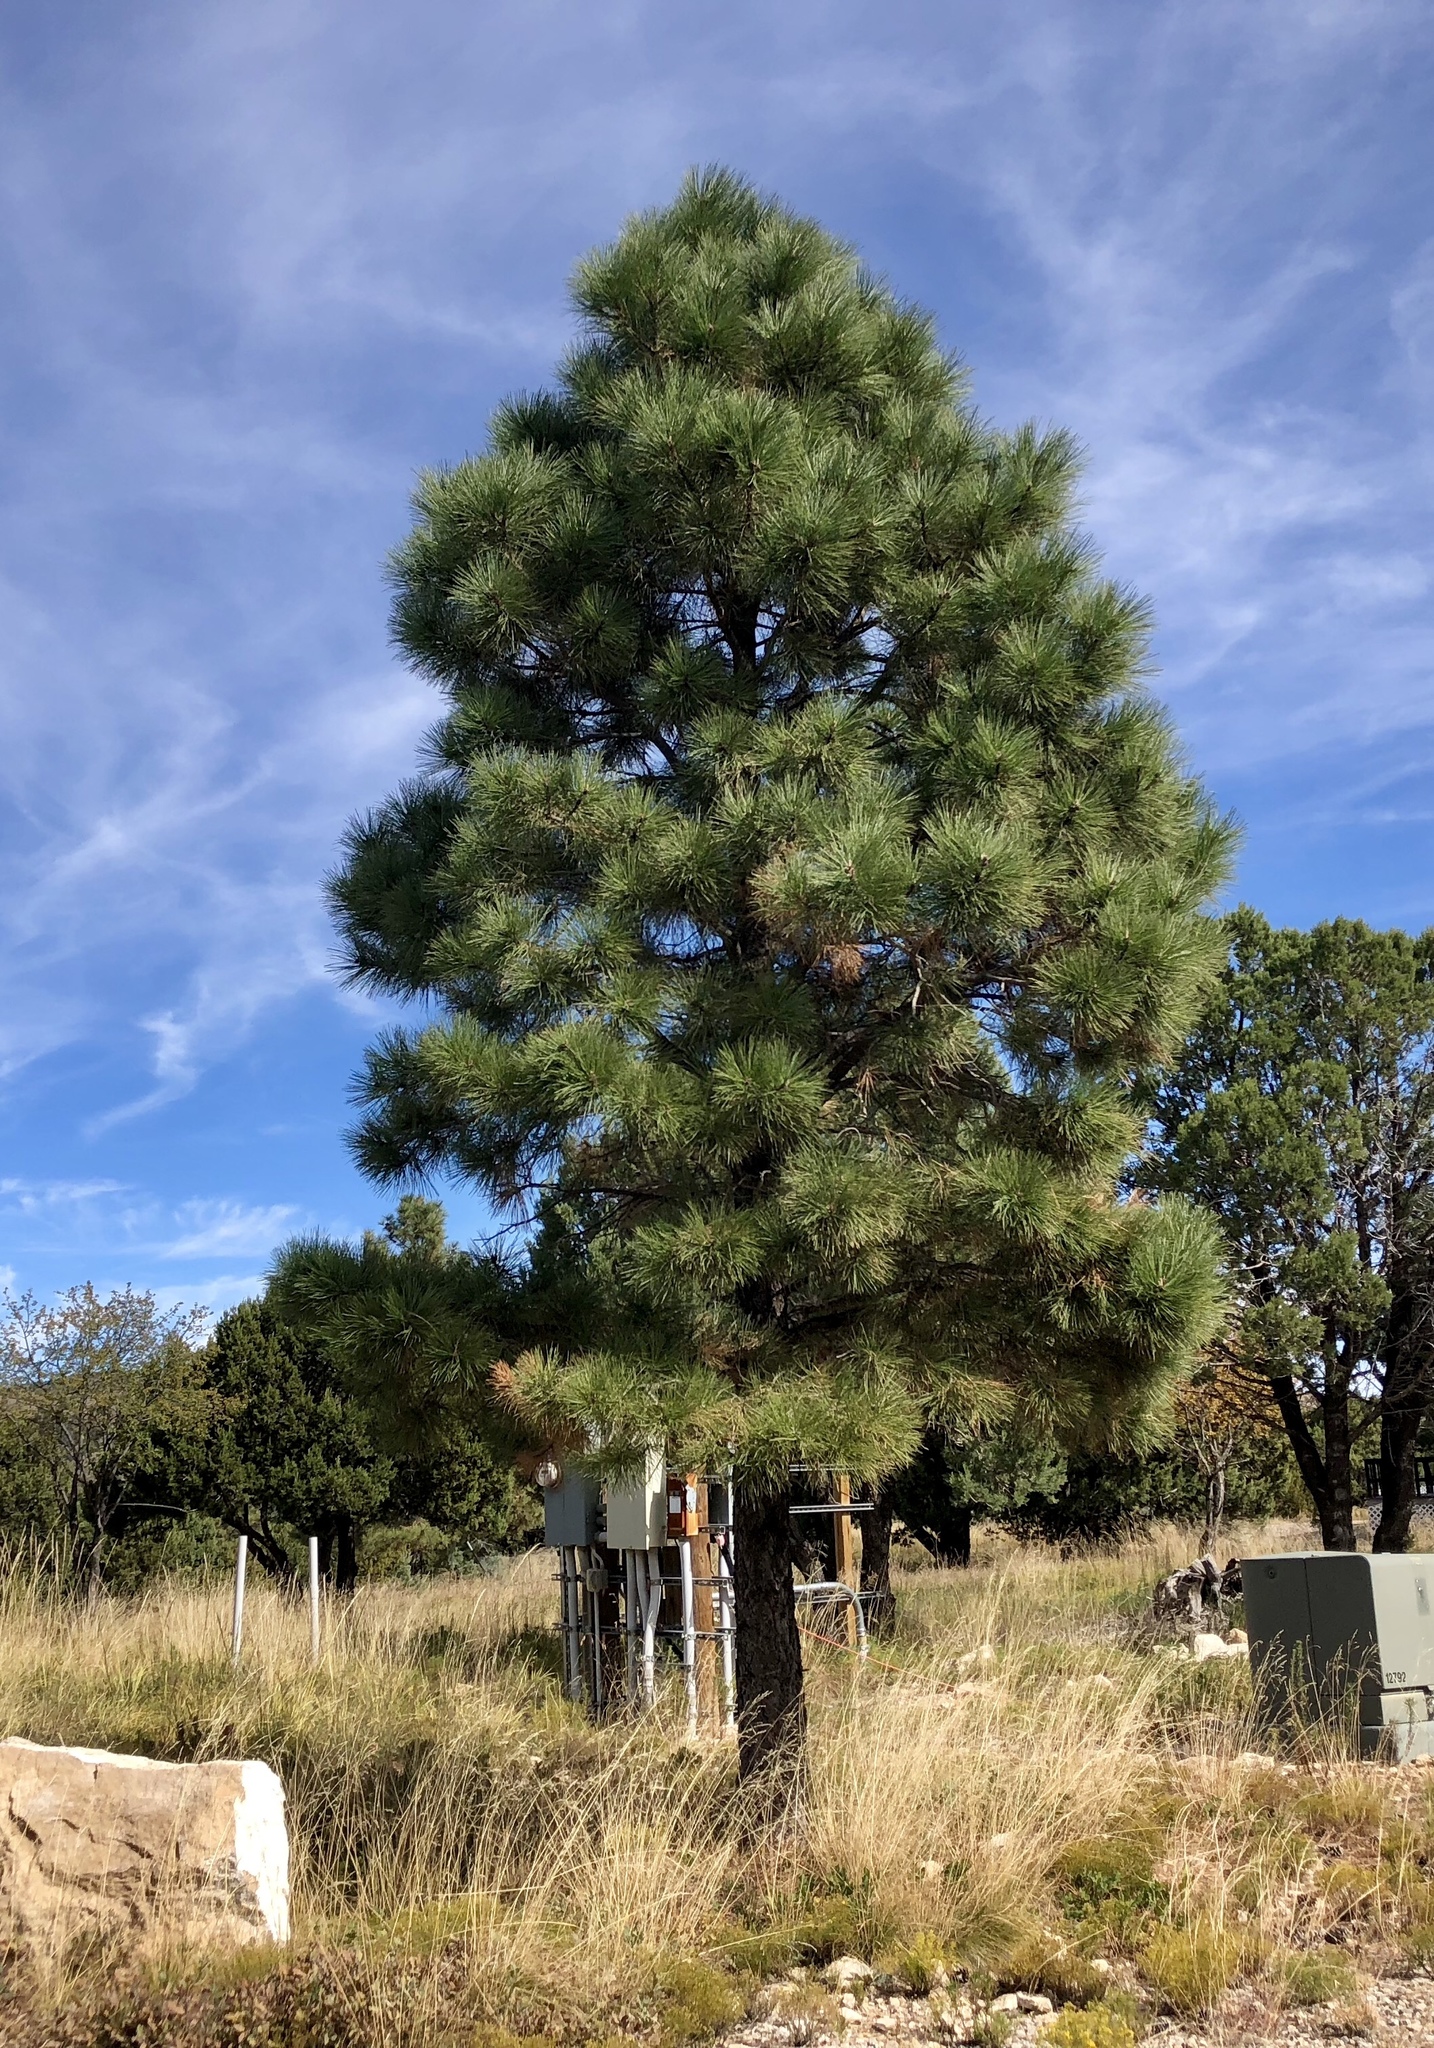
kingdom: Plantae
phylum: Tracheophyta
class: Pinopsida
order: Pinales
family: Pinaceae
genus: Pinus
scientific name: Pinus ponderosa
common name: Western yellow-pine
